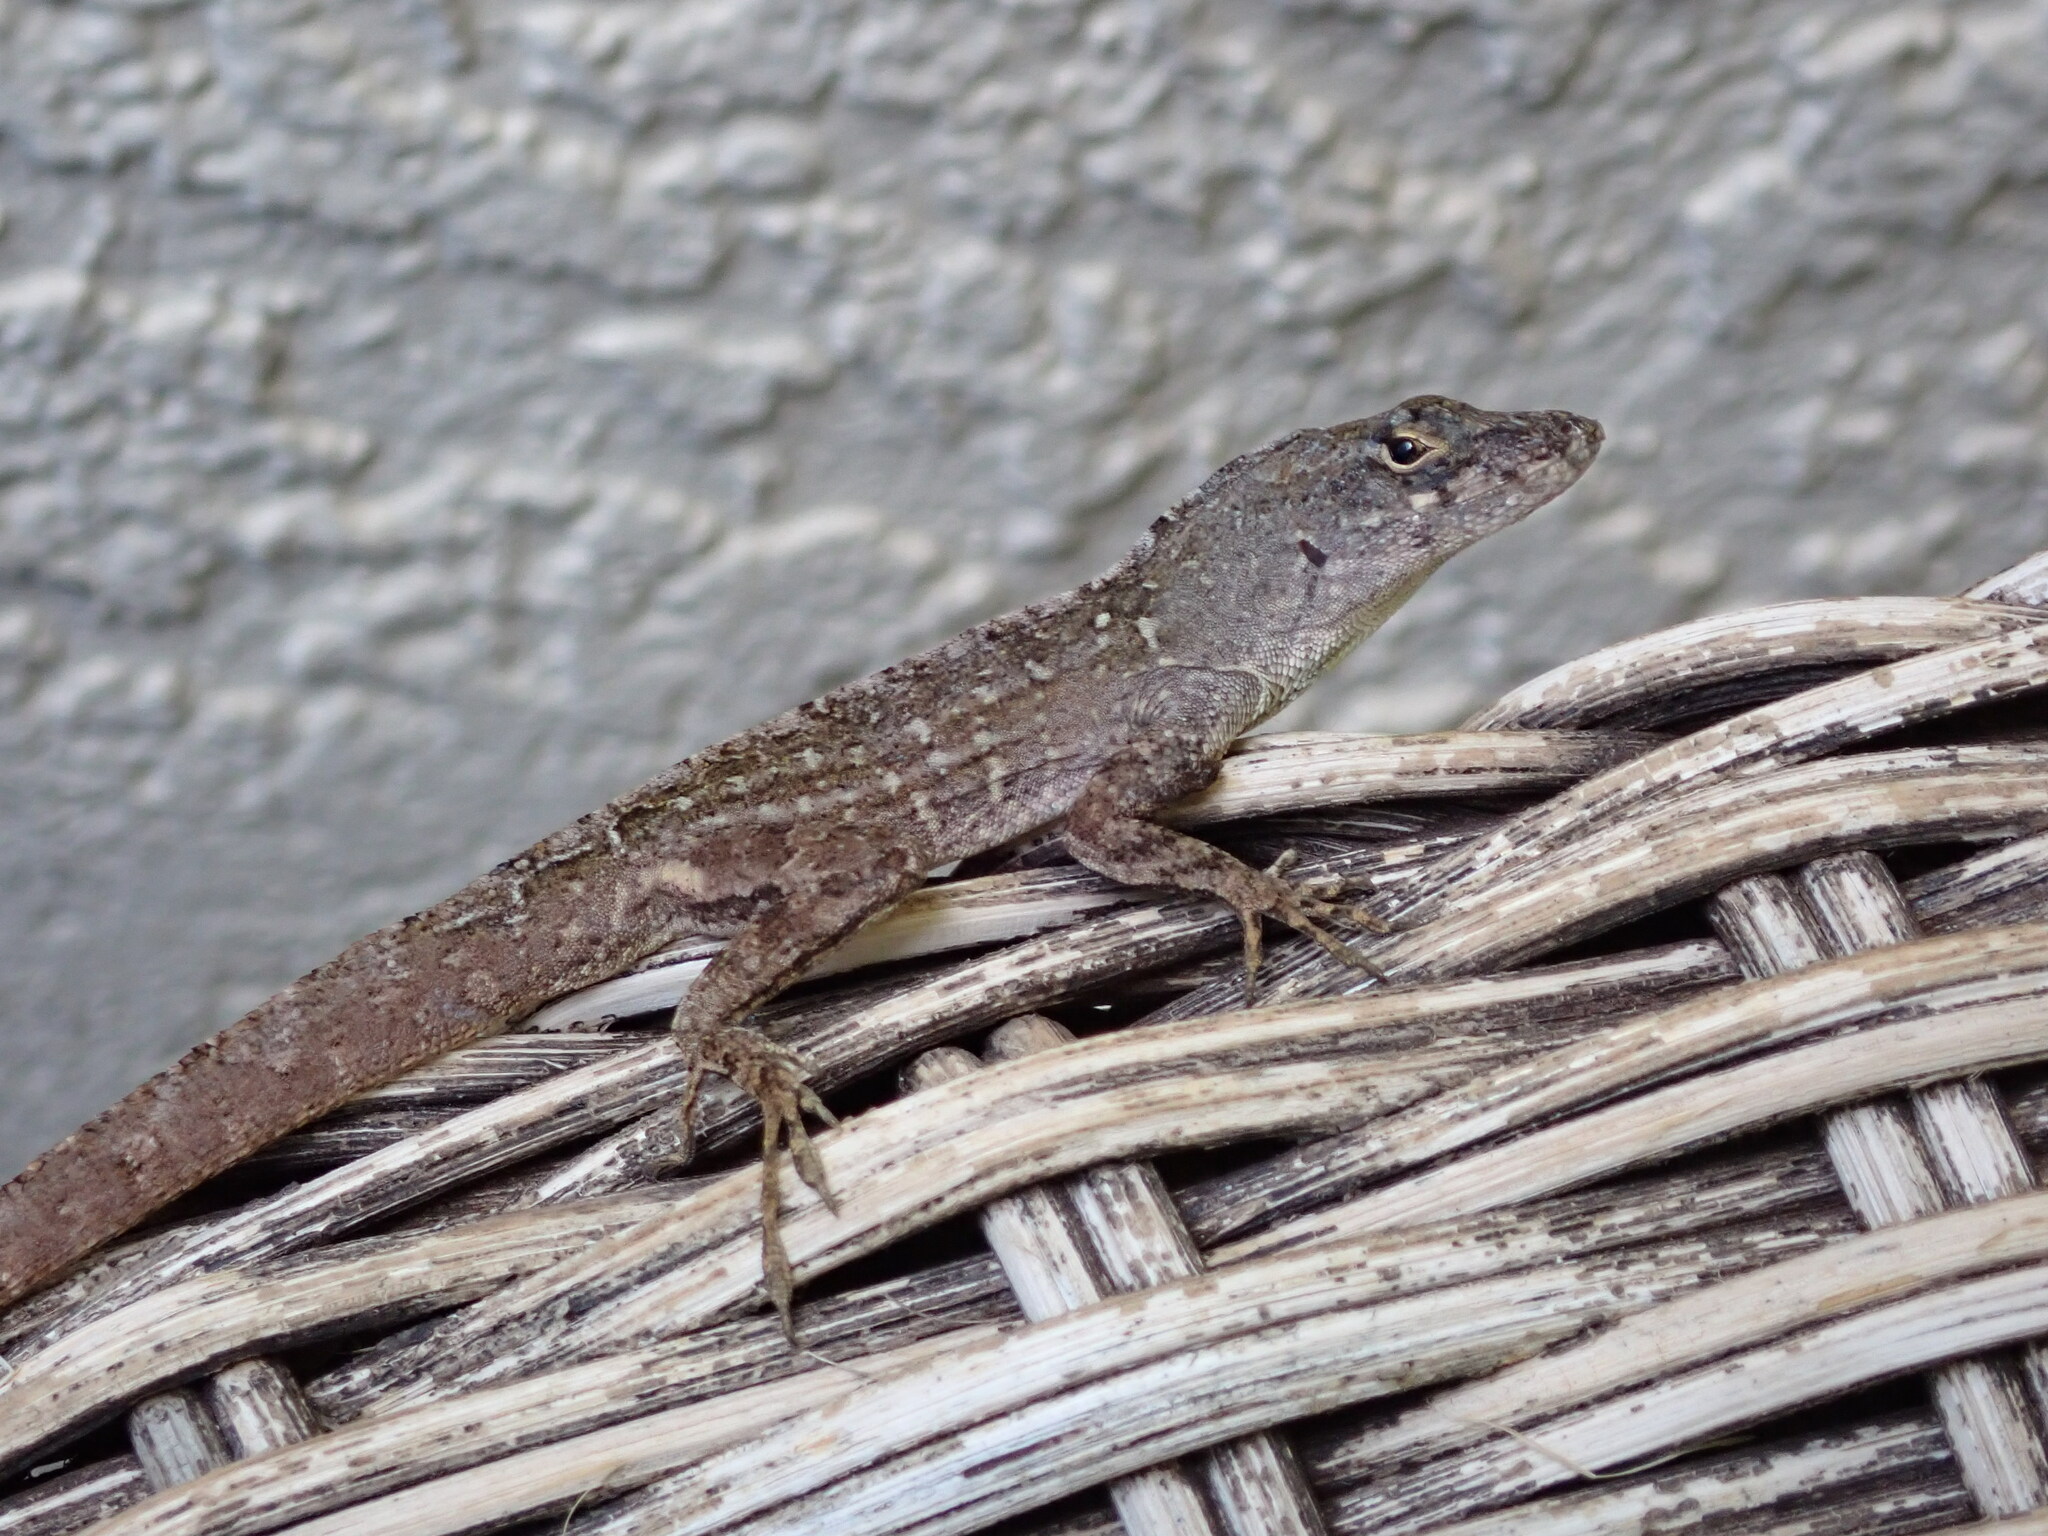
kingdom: Animalia
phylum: Chordata
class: Squamata
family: Dactyloidae
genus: Anolis
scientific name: Anolis sagrei
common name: Brown anole
